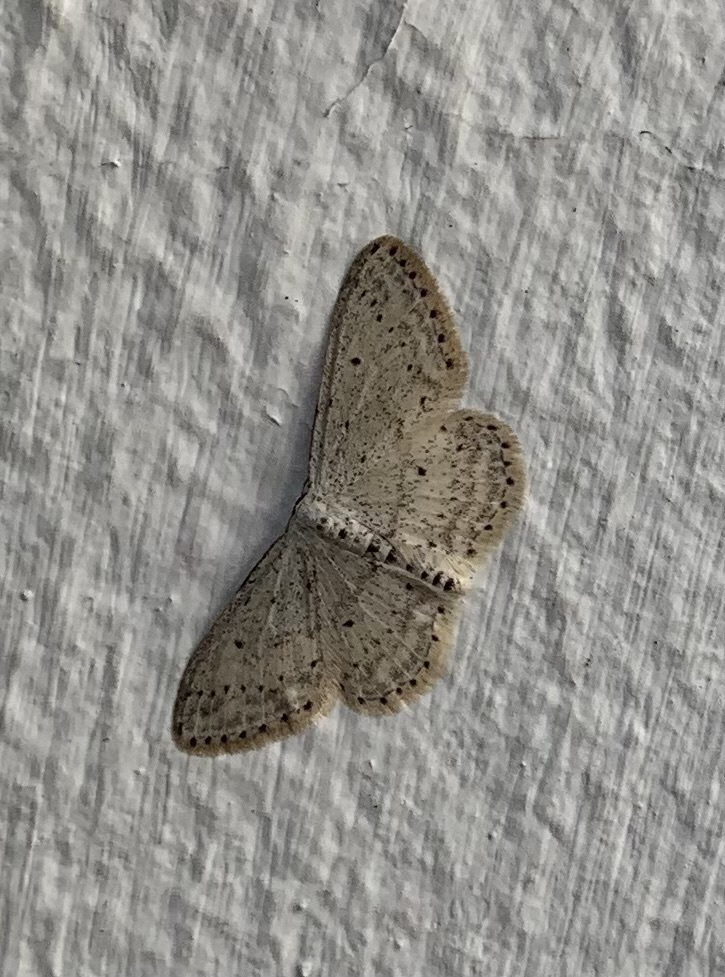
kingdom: Animalia
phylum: Arthropoda
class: Insecta
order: Lepidoptera
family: Geometridae
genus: Idaea
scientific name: Idaea seriata
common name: Small dusty wave
